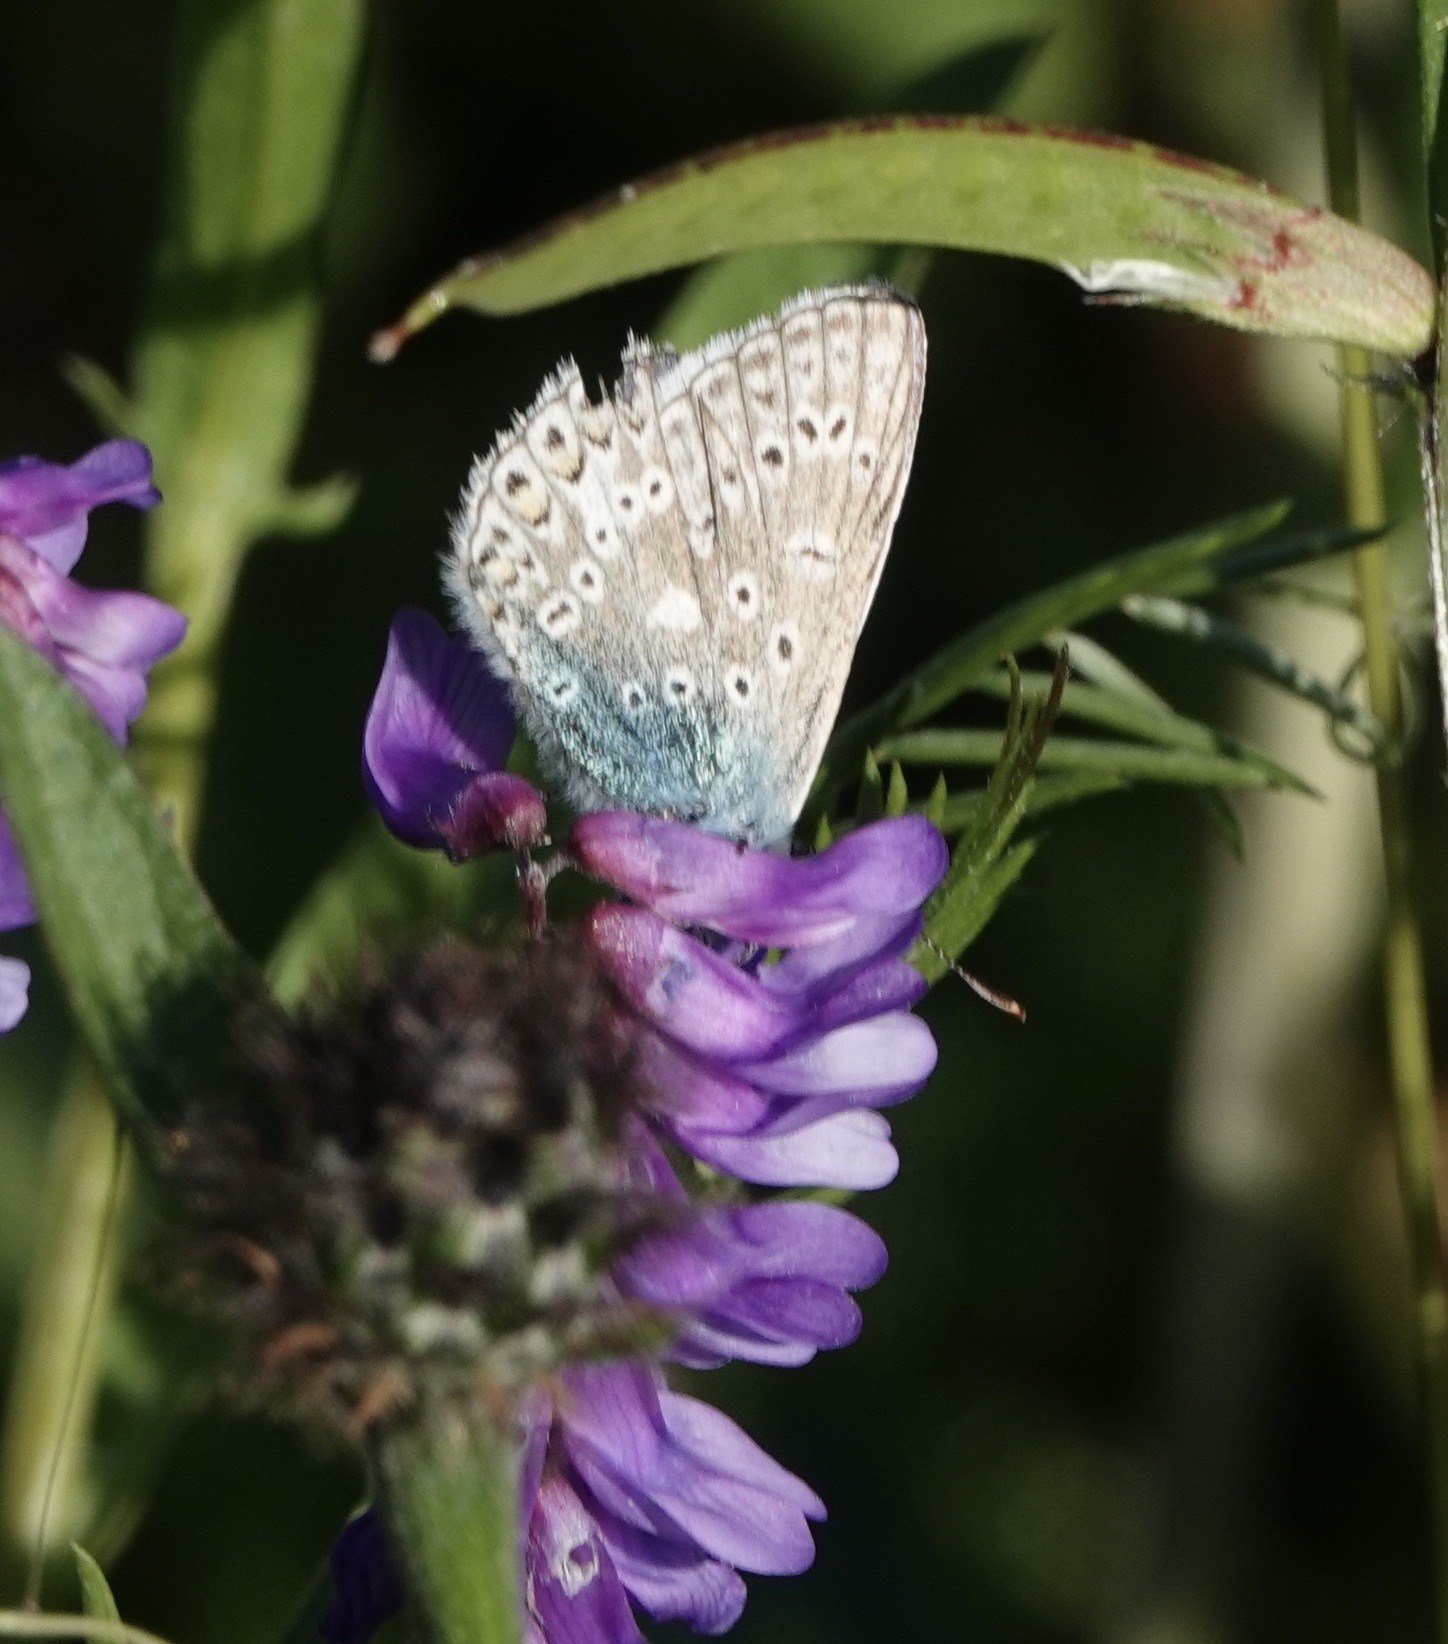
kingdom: Animalia
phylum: Arthropoda
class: Insecta
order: Lepidoptera
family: Lycaenidae
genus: Polyommatus
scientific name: Polyommatus icarus
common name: Common blue
